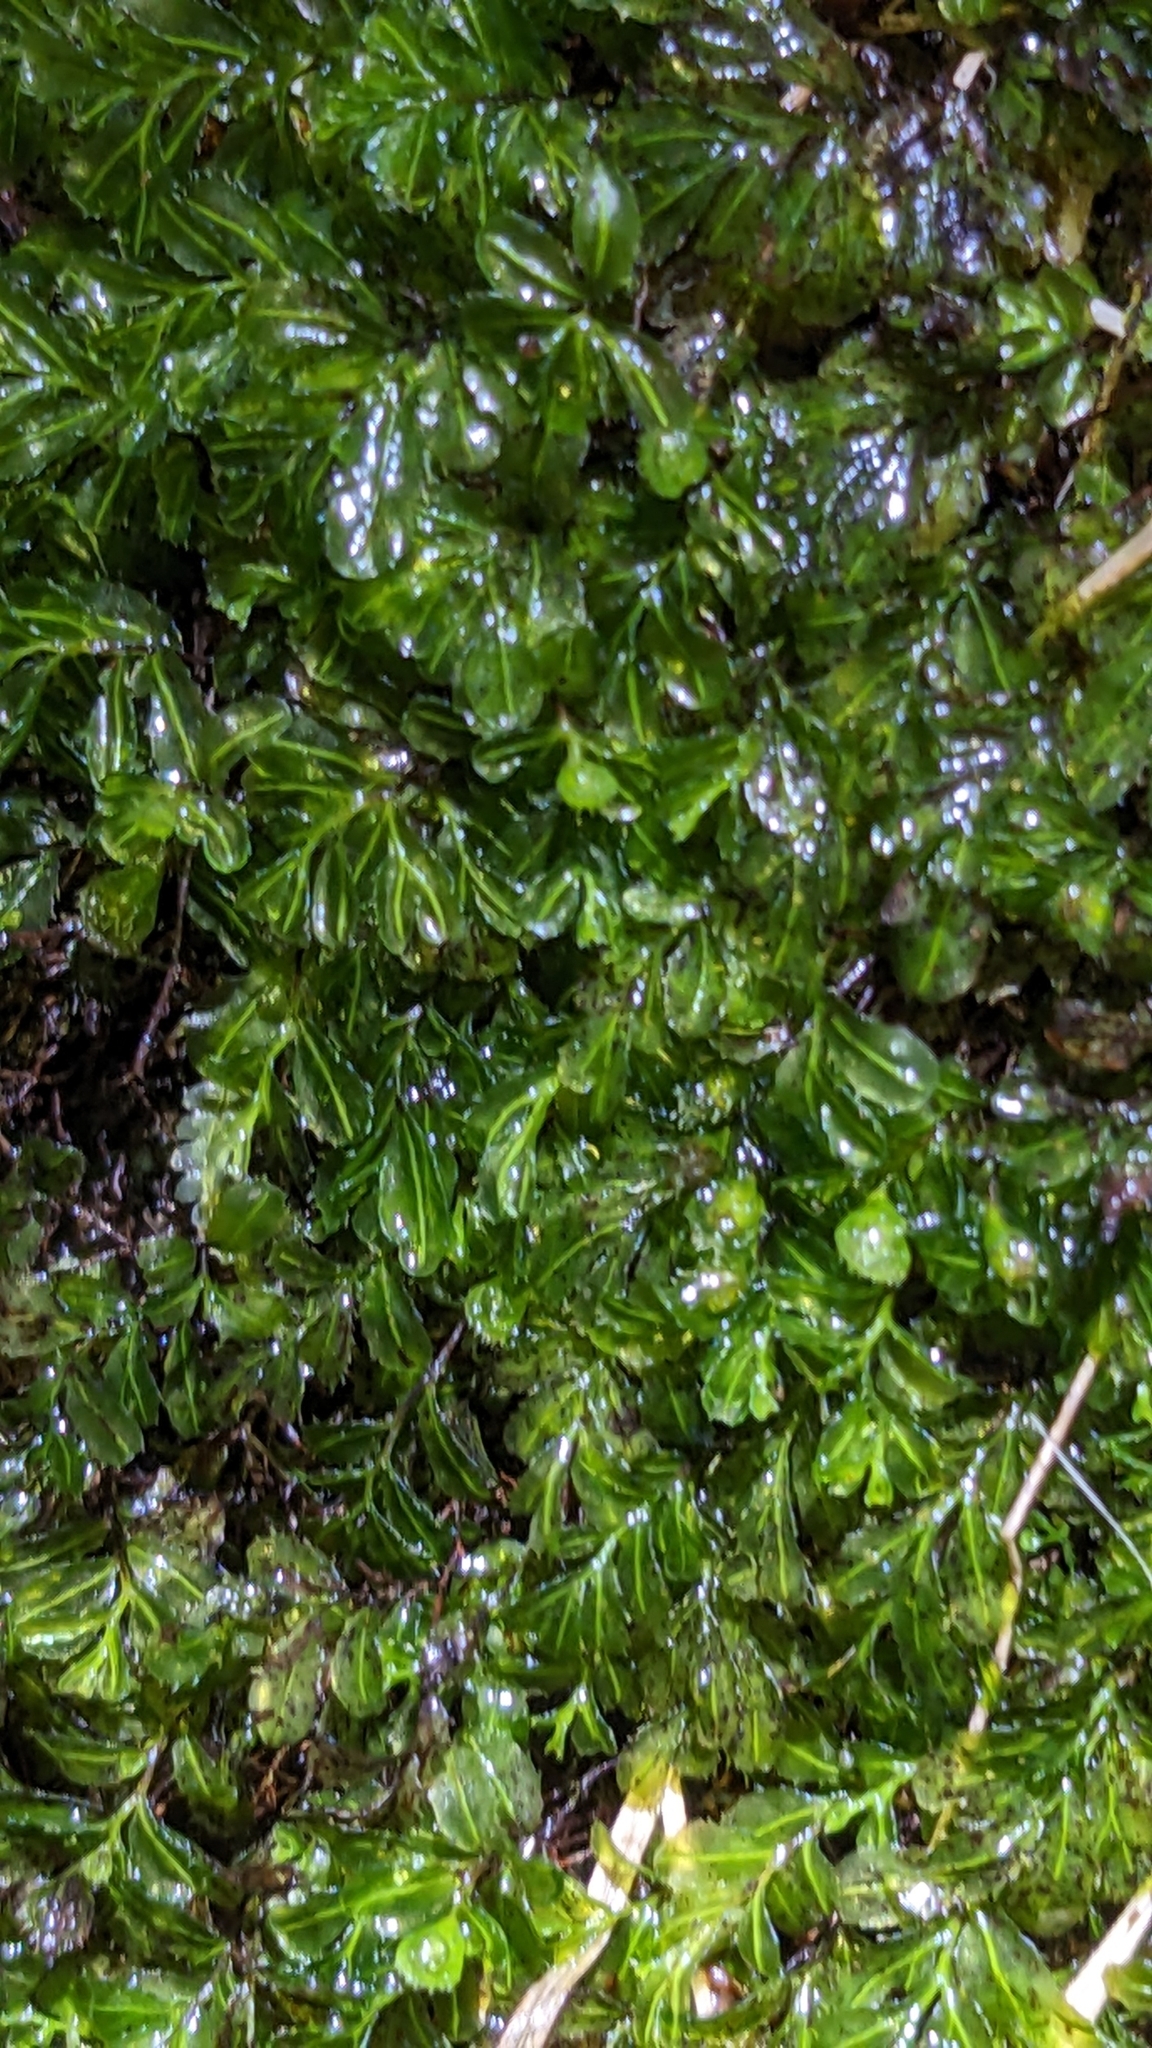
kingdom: Plantae
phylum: Tracheophyta
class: Polypodiopsida
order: Hymenophyllales
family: Hymenophyllaceae
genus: Hymenophyllum
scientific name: Hymenophyllum minimum
